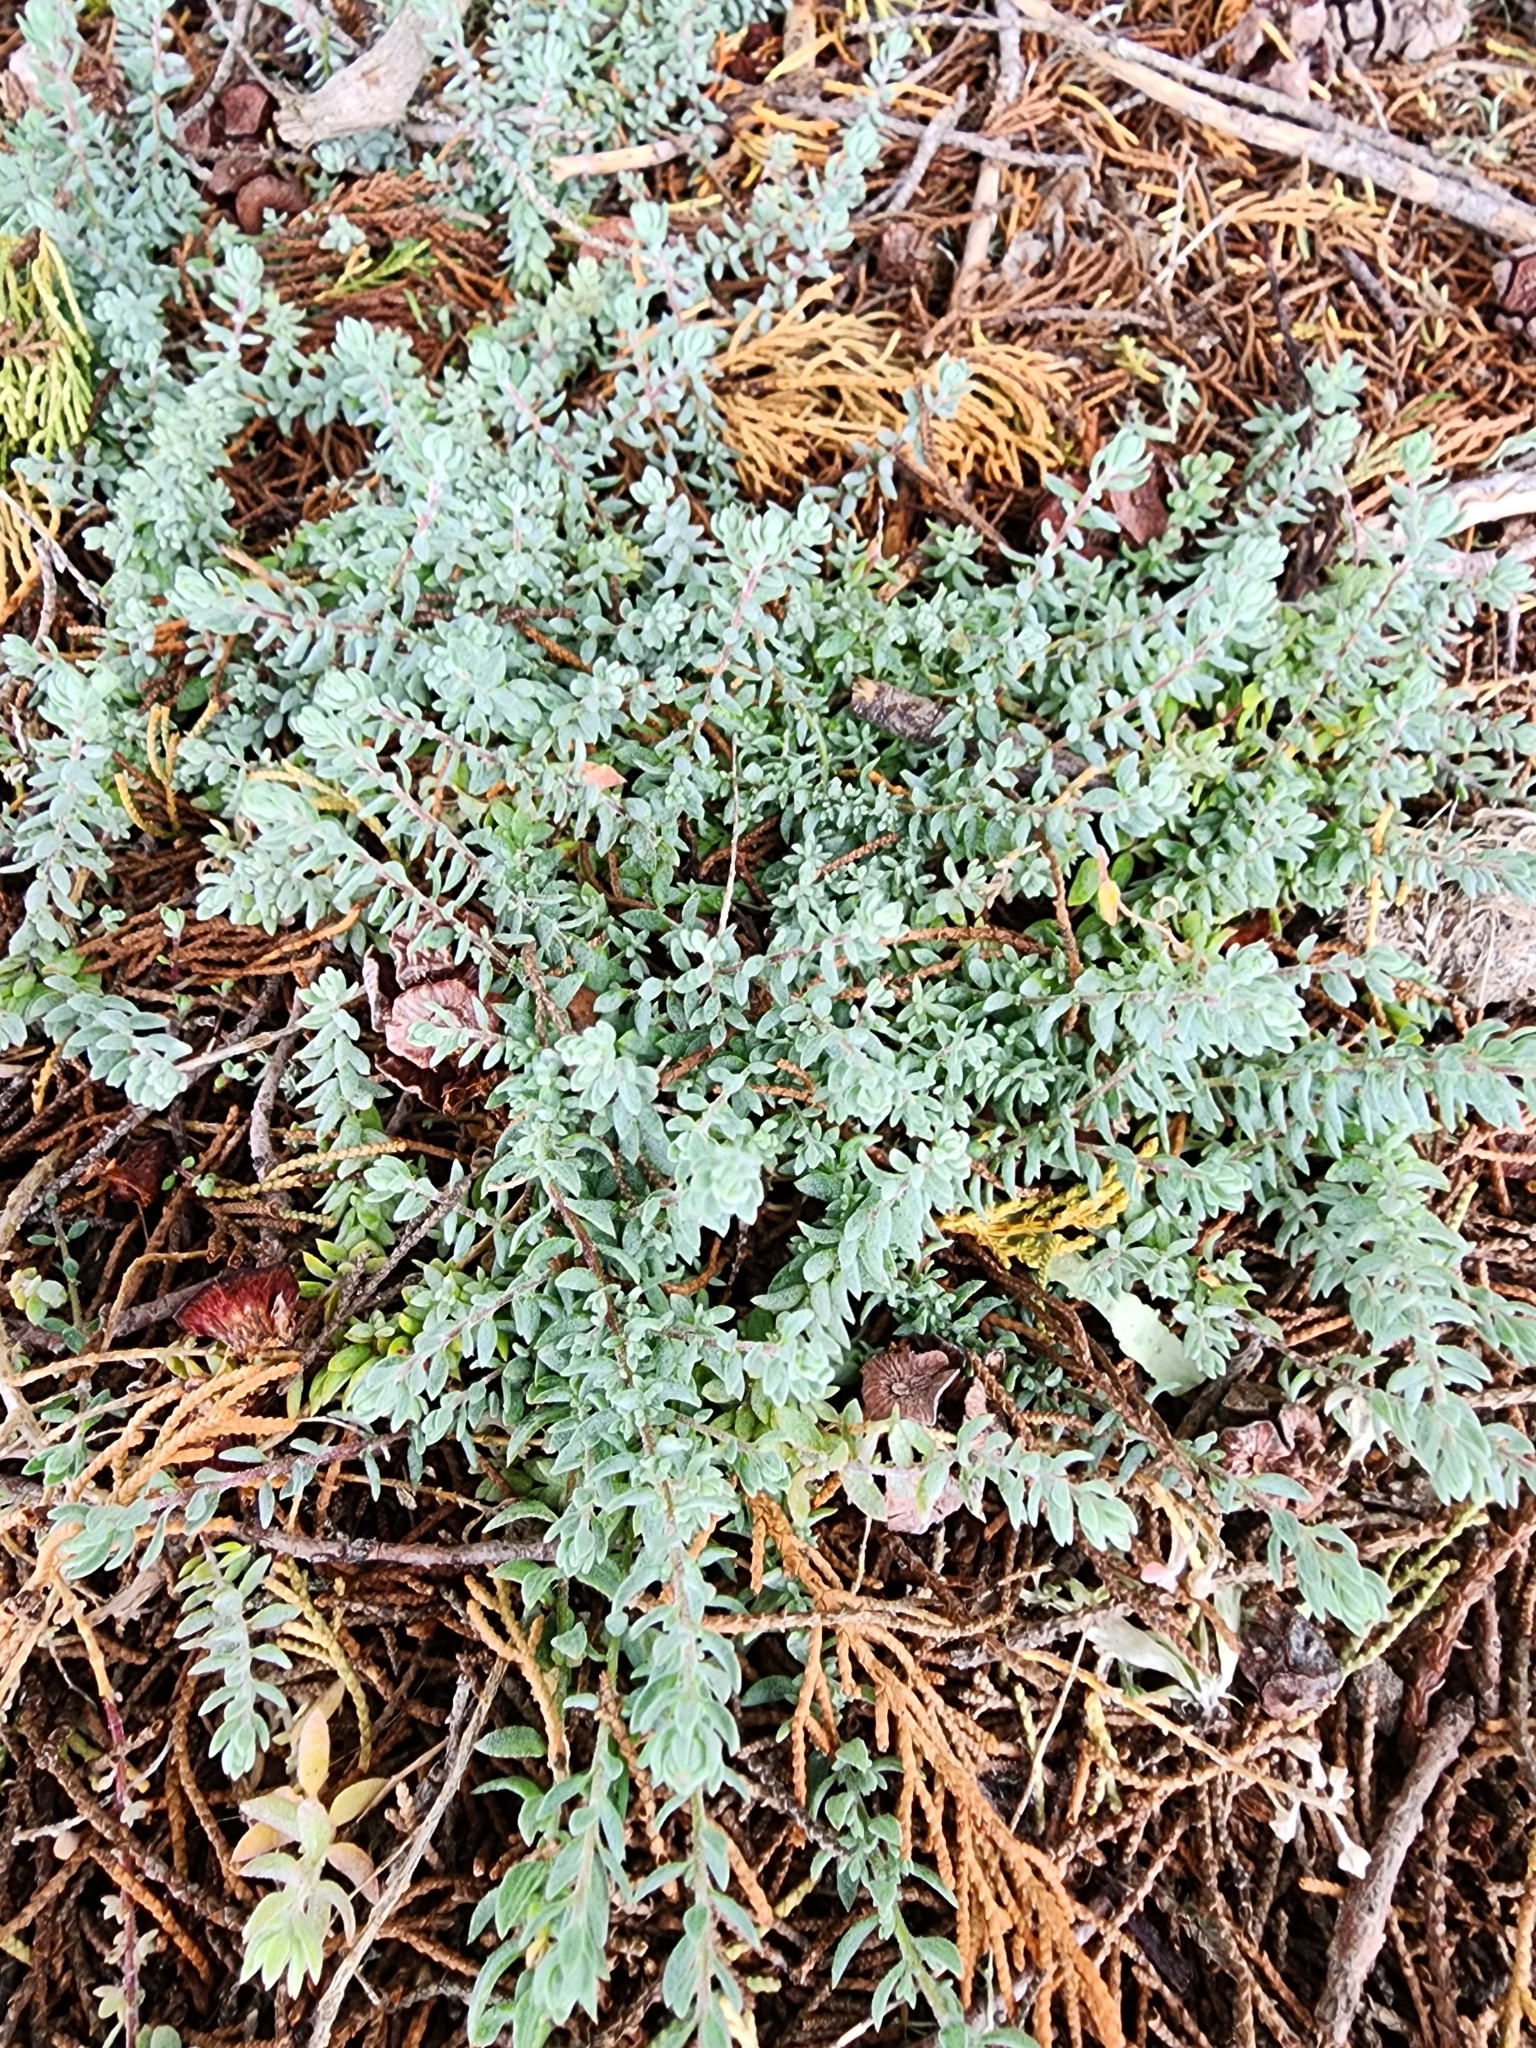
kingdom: Plantae
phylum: Tracheophyta
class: Magnoliopsida
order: Caryophyllales
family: Amaranthaceae
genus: Extriplex
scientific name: Extriplex californica
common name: California saltbush
